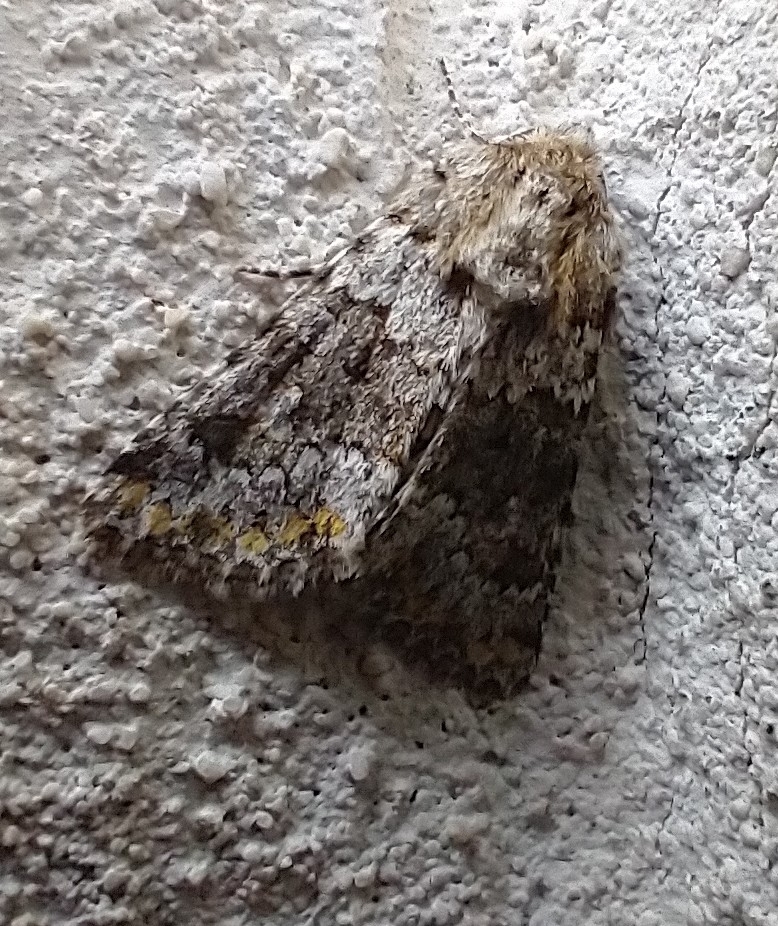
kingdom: Animalia
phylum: Arthropoda
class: Insecta
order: Lepidoptera
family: Noctuidae
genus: Hecatera
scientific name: Hecatera dysodea
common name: Small ranunculus
